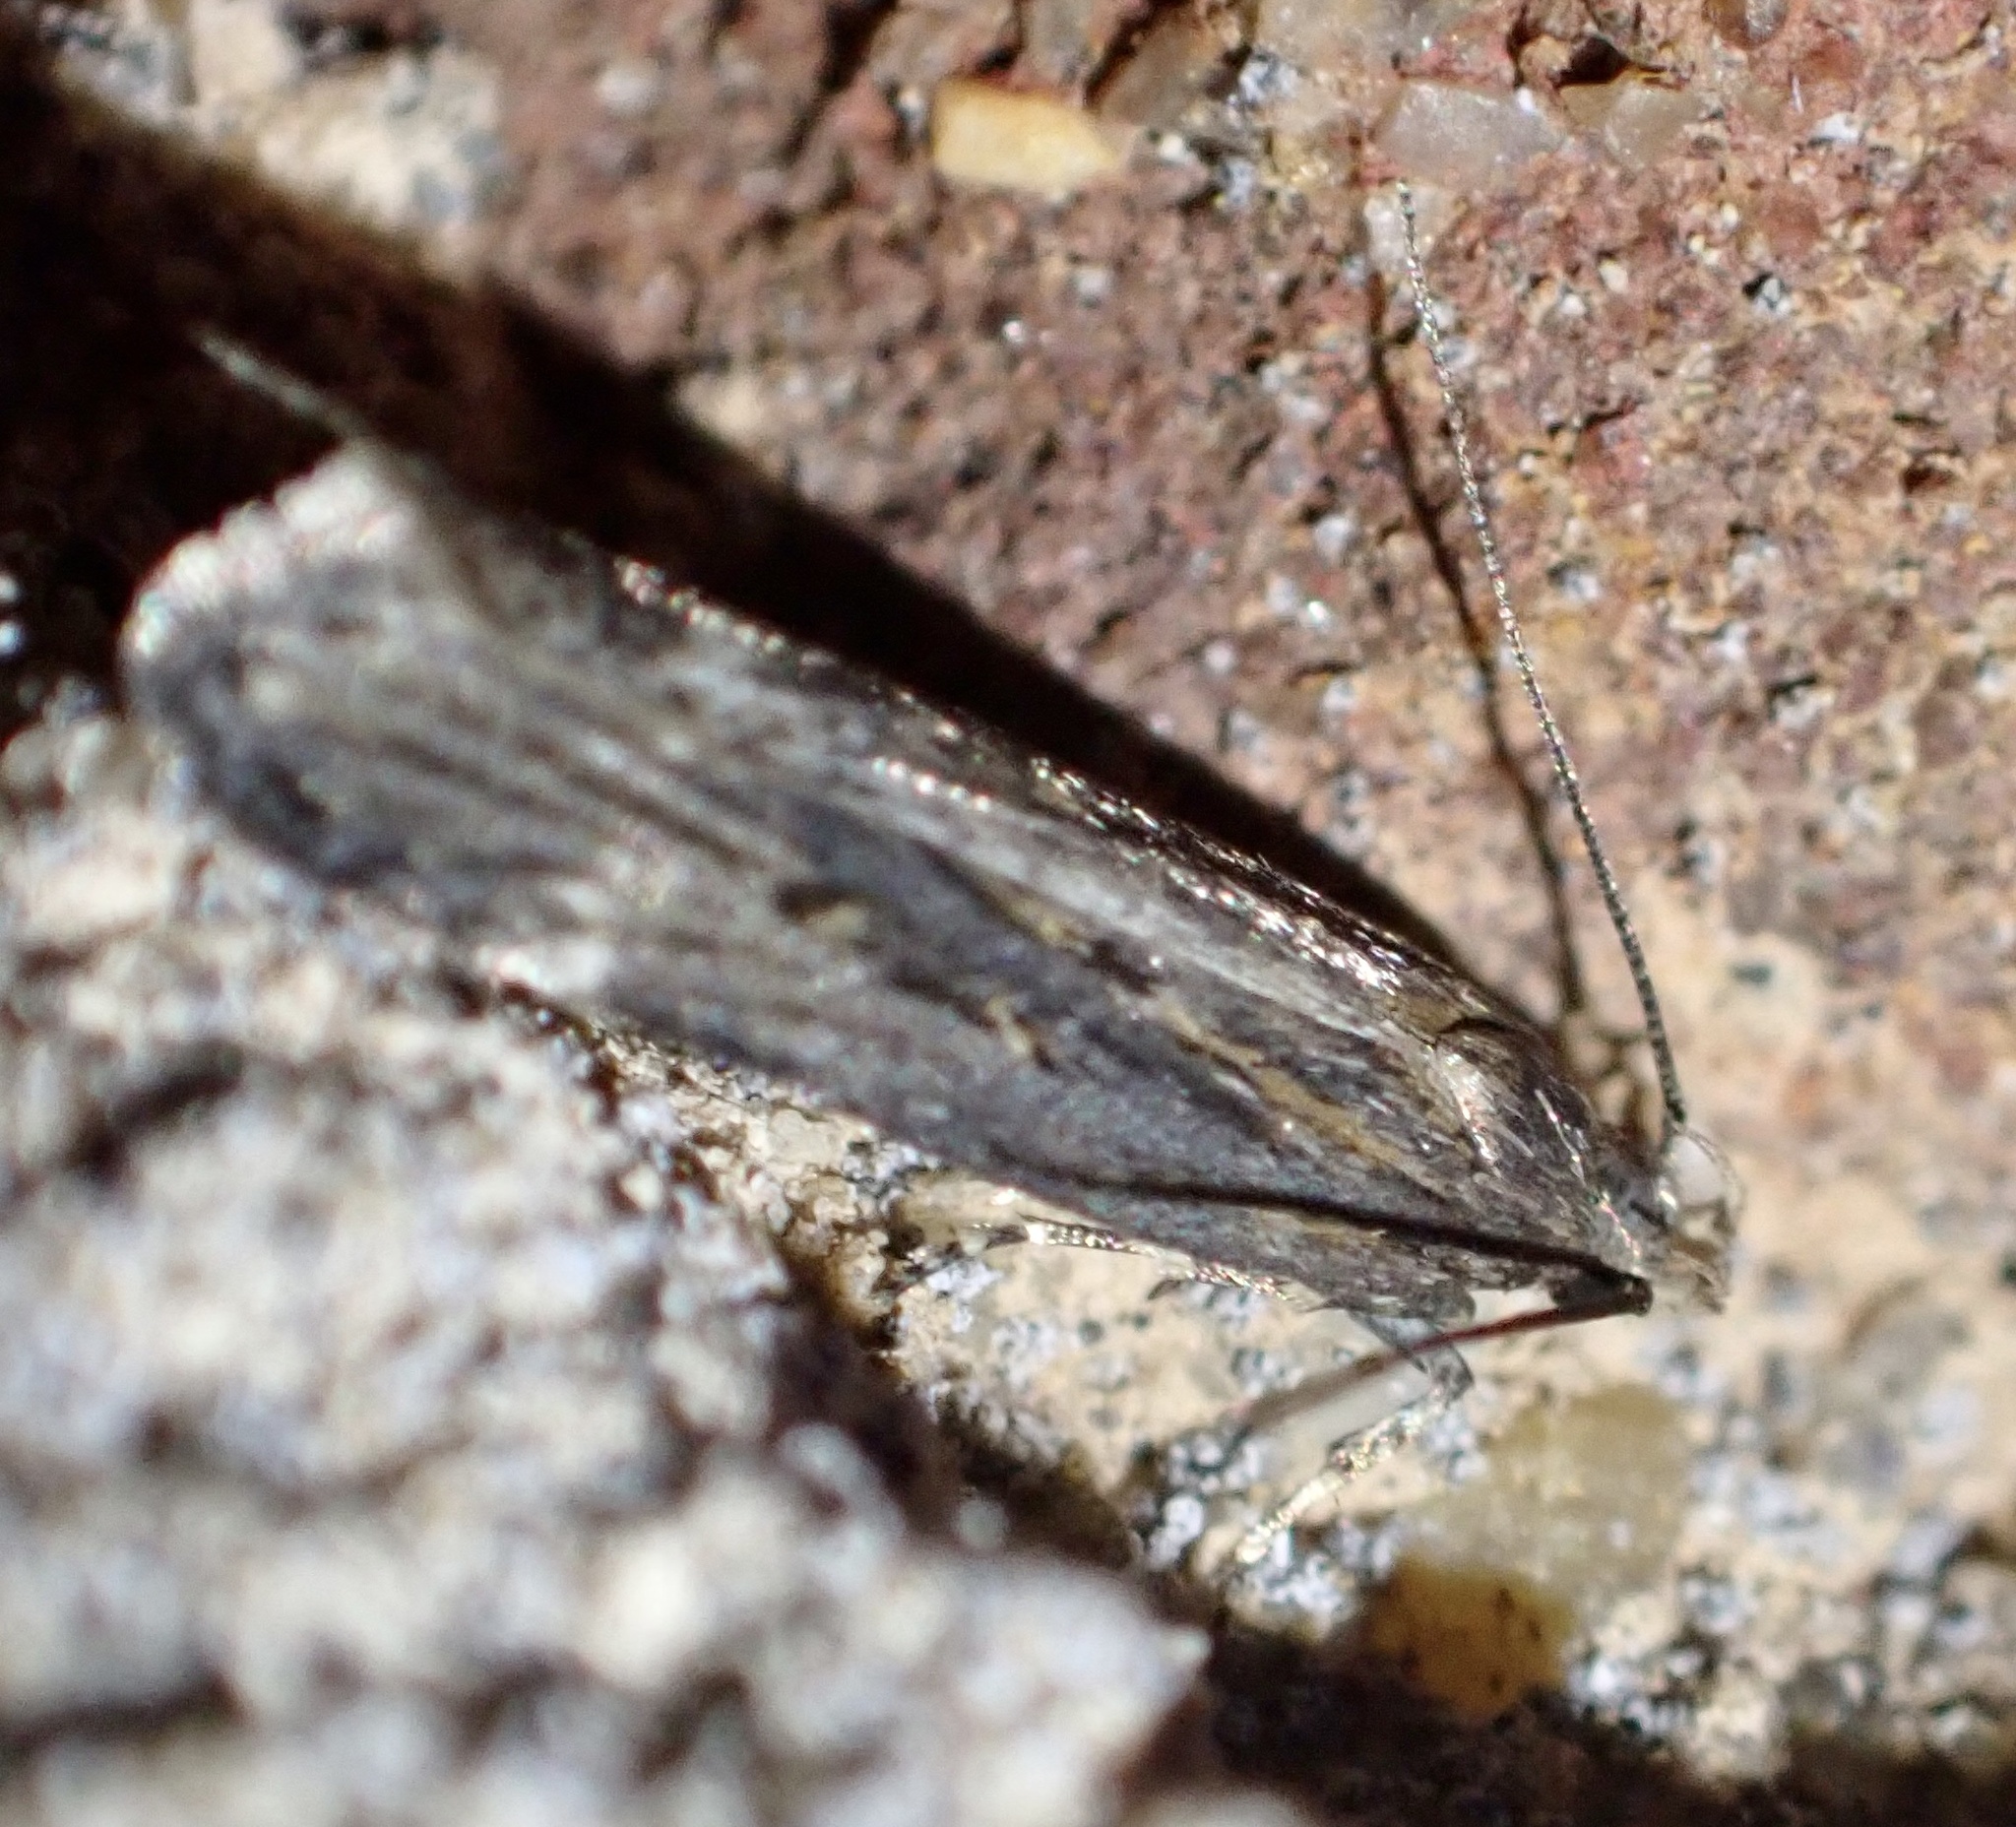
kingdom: Animalia
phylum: Arthropoda
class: Insecta
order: Lepidoptera
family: Gelechiidae
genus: Aroga
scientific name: Aroga velocella
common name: Dusky groundling
